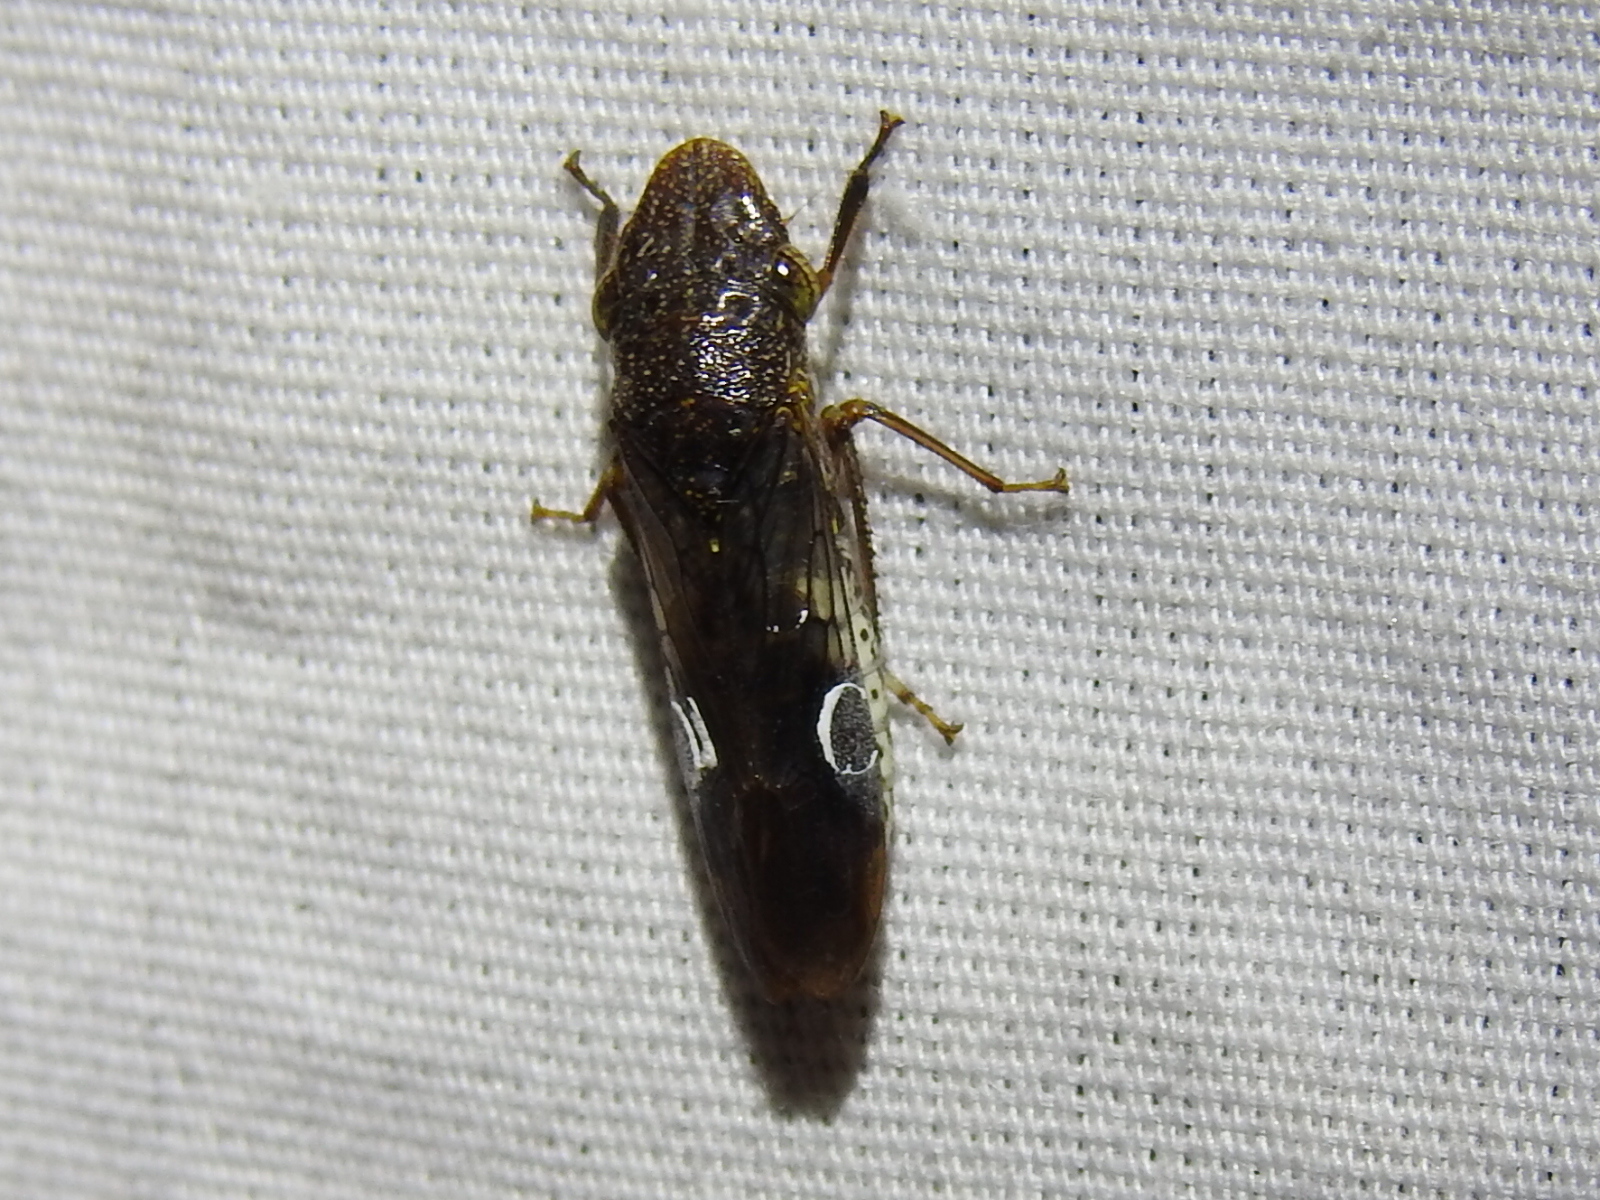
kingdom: Animalia
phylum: Arthropoda
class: Insecta
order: Hemiptera
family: Cicadellidae
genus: Homalodisca
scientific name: Homalodisca vitripennis
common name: Glassy-winged sharpshooter
